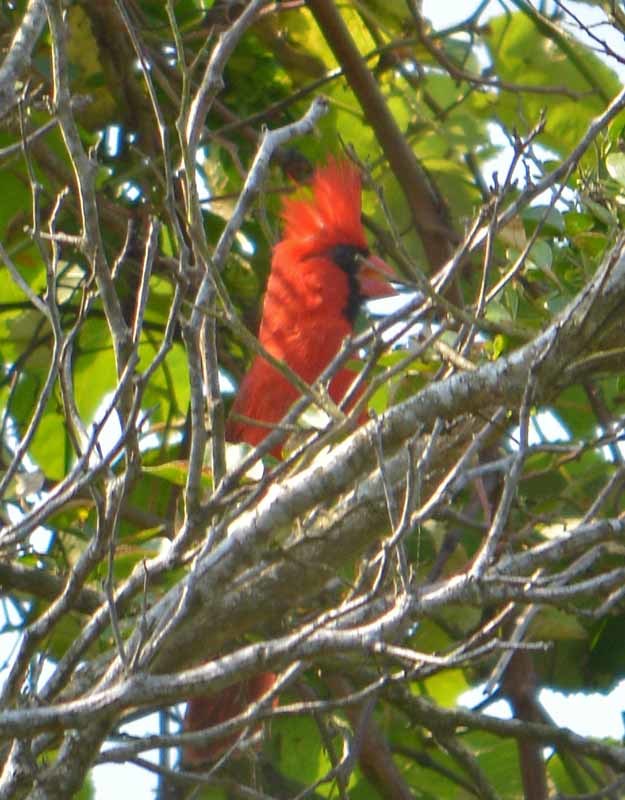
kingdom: Animalia
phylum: Chordata
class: Aves
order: Passeriformes
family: Cardinalidae
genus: Cardinalis
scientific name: Cardinalis cardinalis
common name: Northern cardinal
